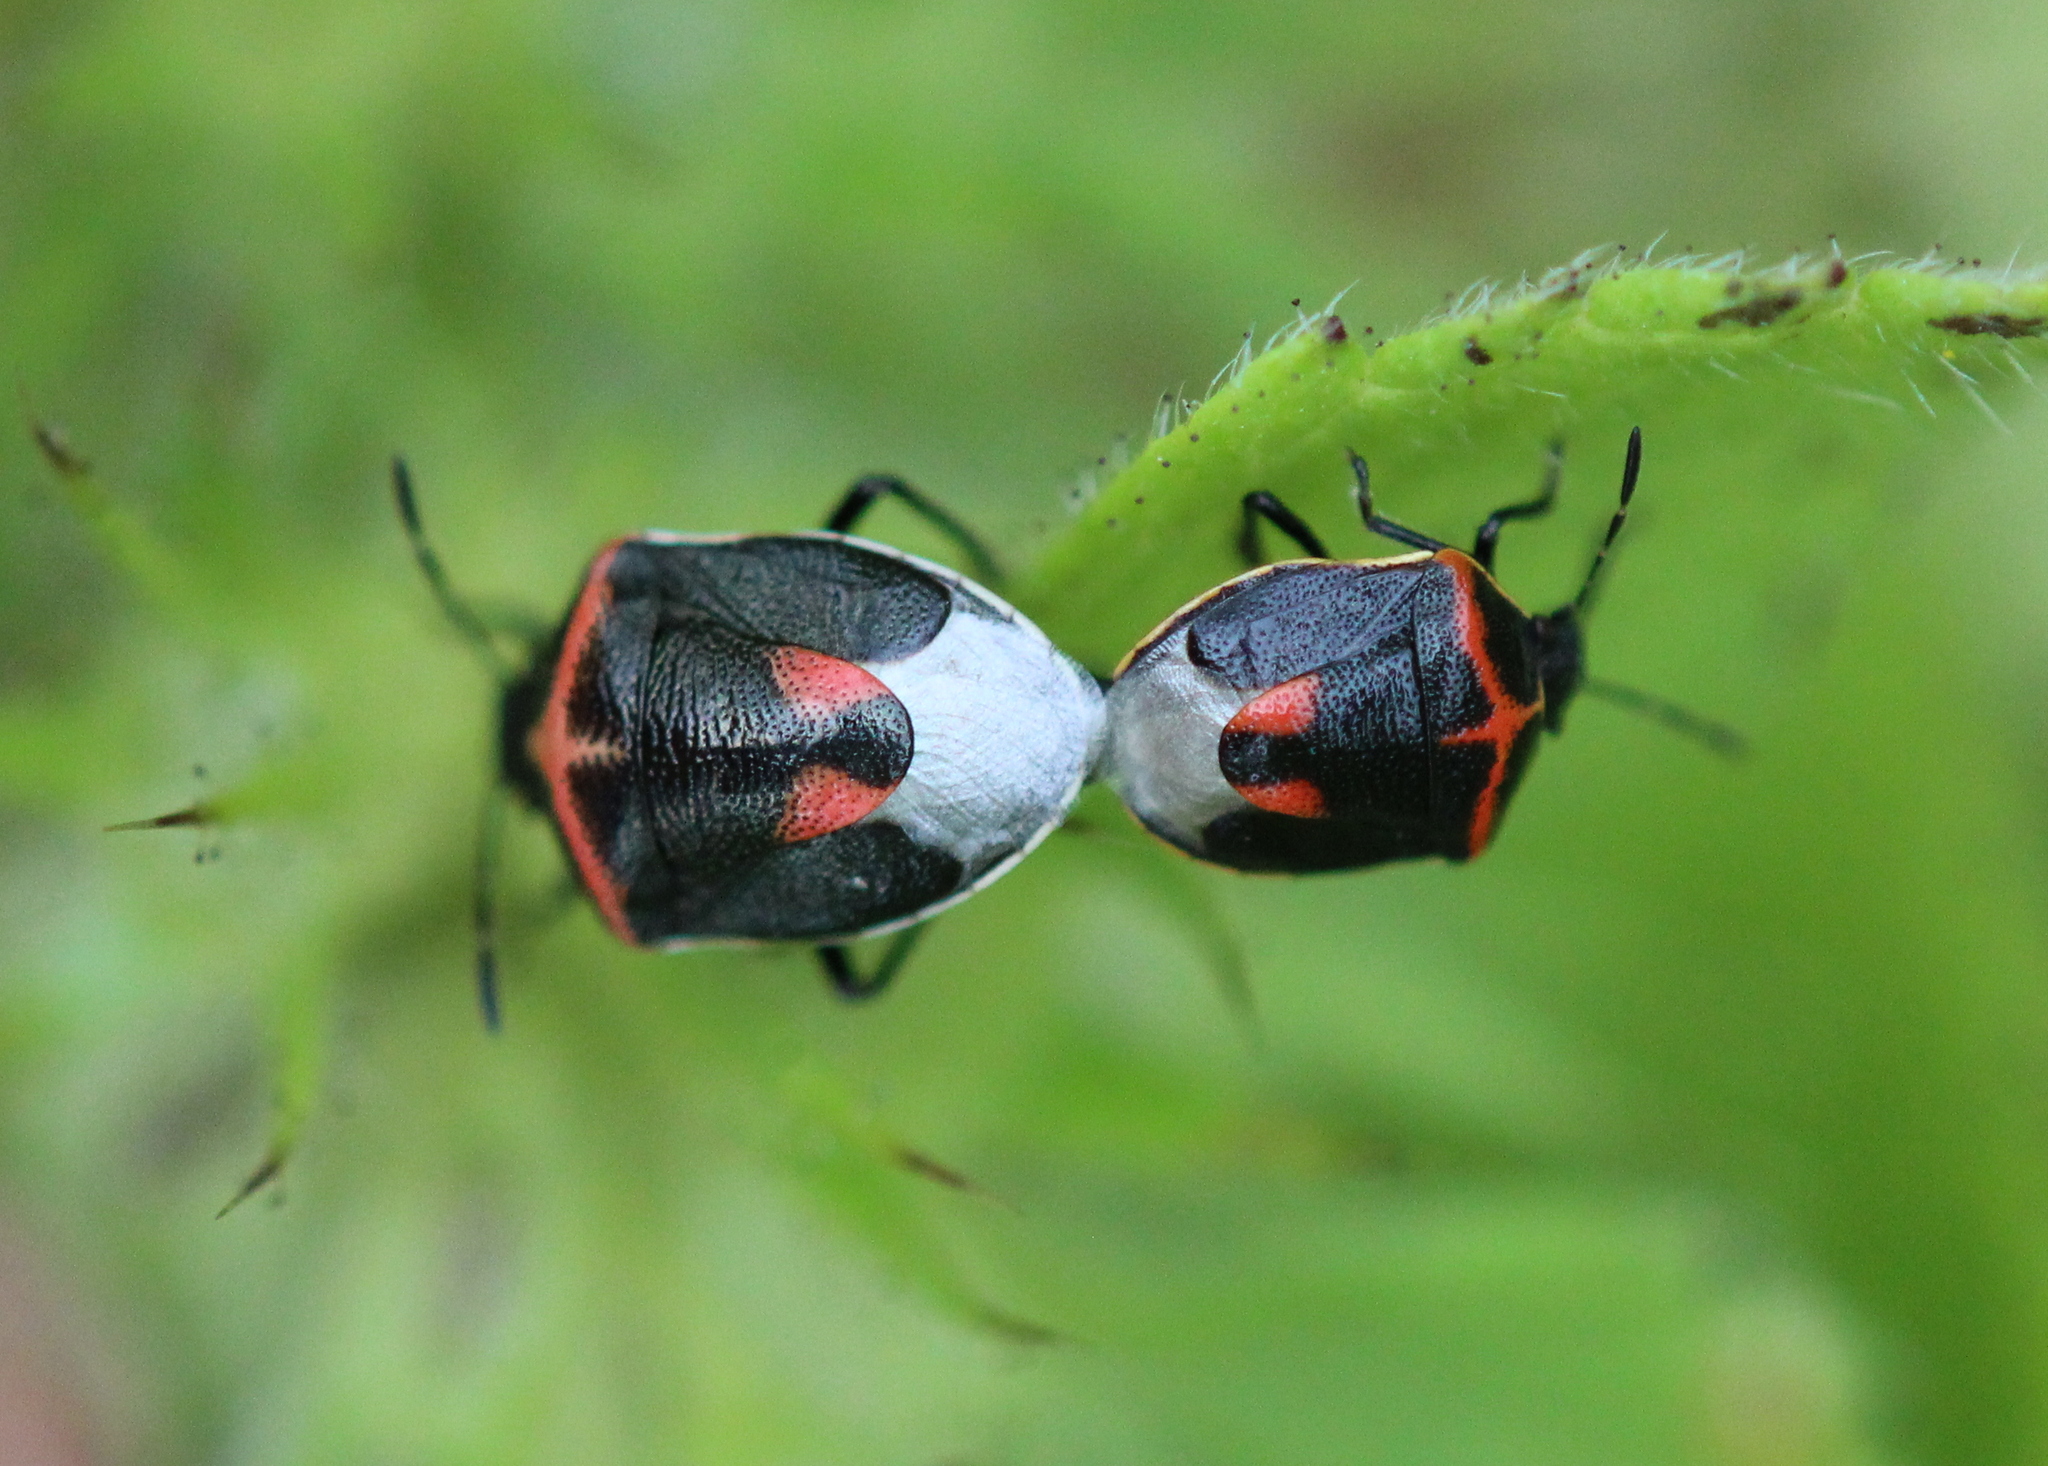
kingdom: Animalia
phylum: Arthropoda
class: Insecta
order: Hemiptera
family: Pentatomidae
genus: Cosmopepla
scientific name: Cosmopepla lintneriana
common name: Twice-stabbed stink bug
